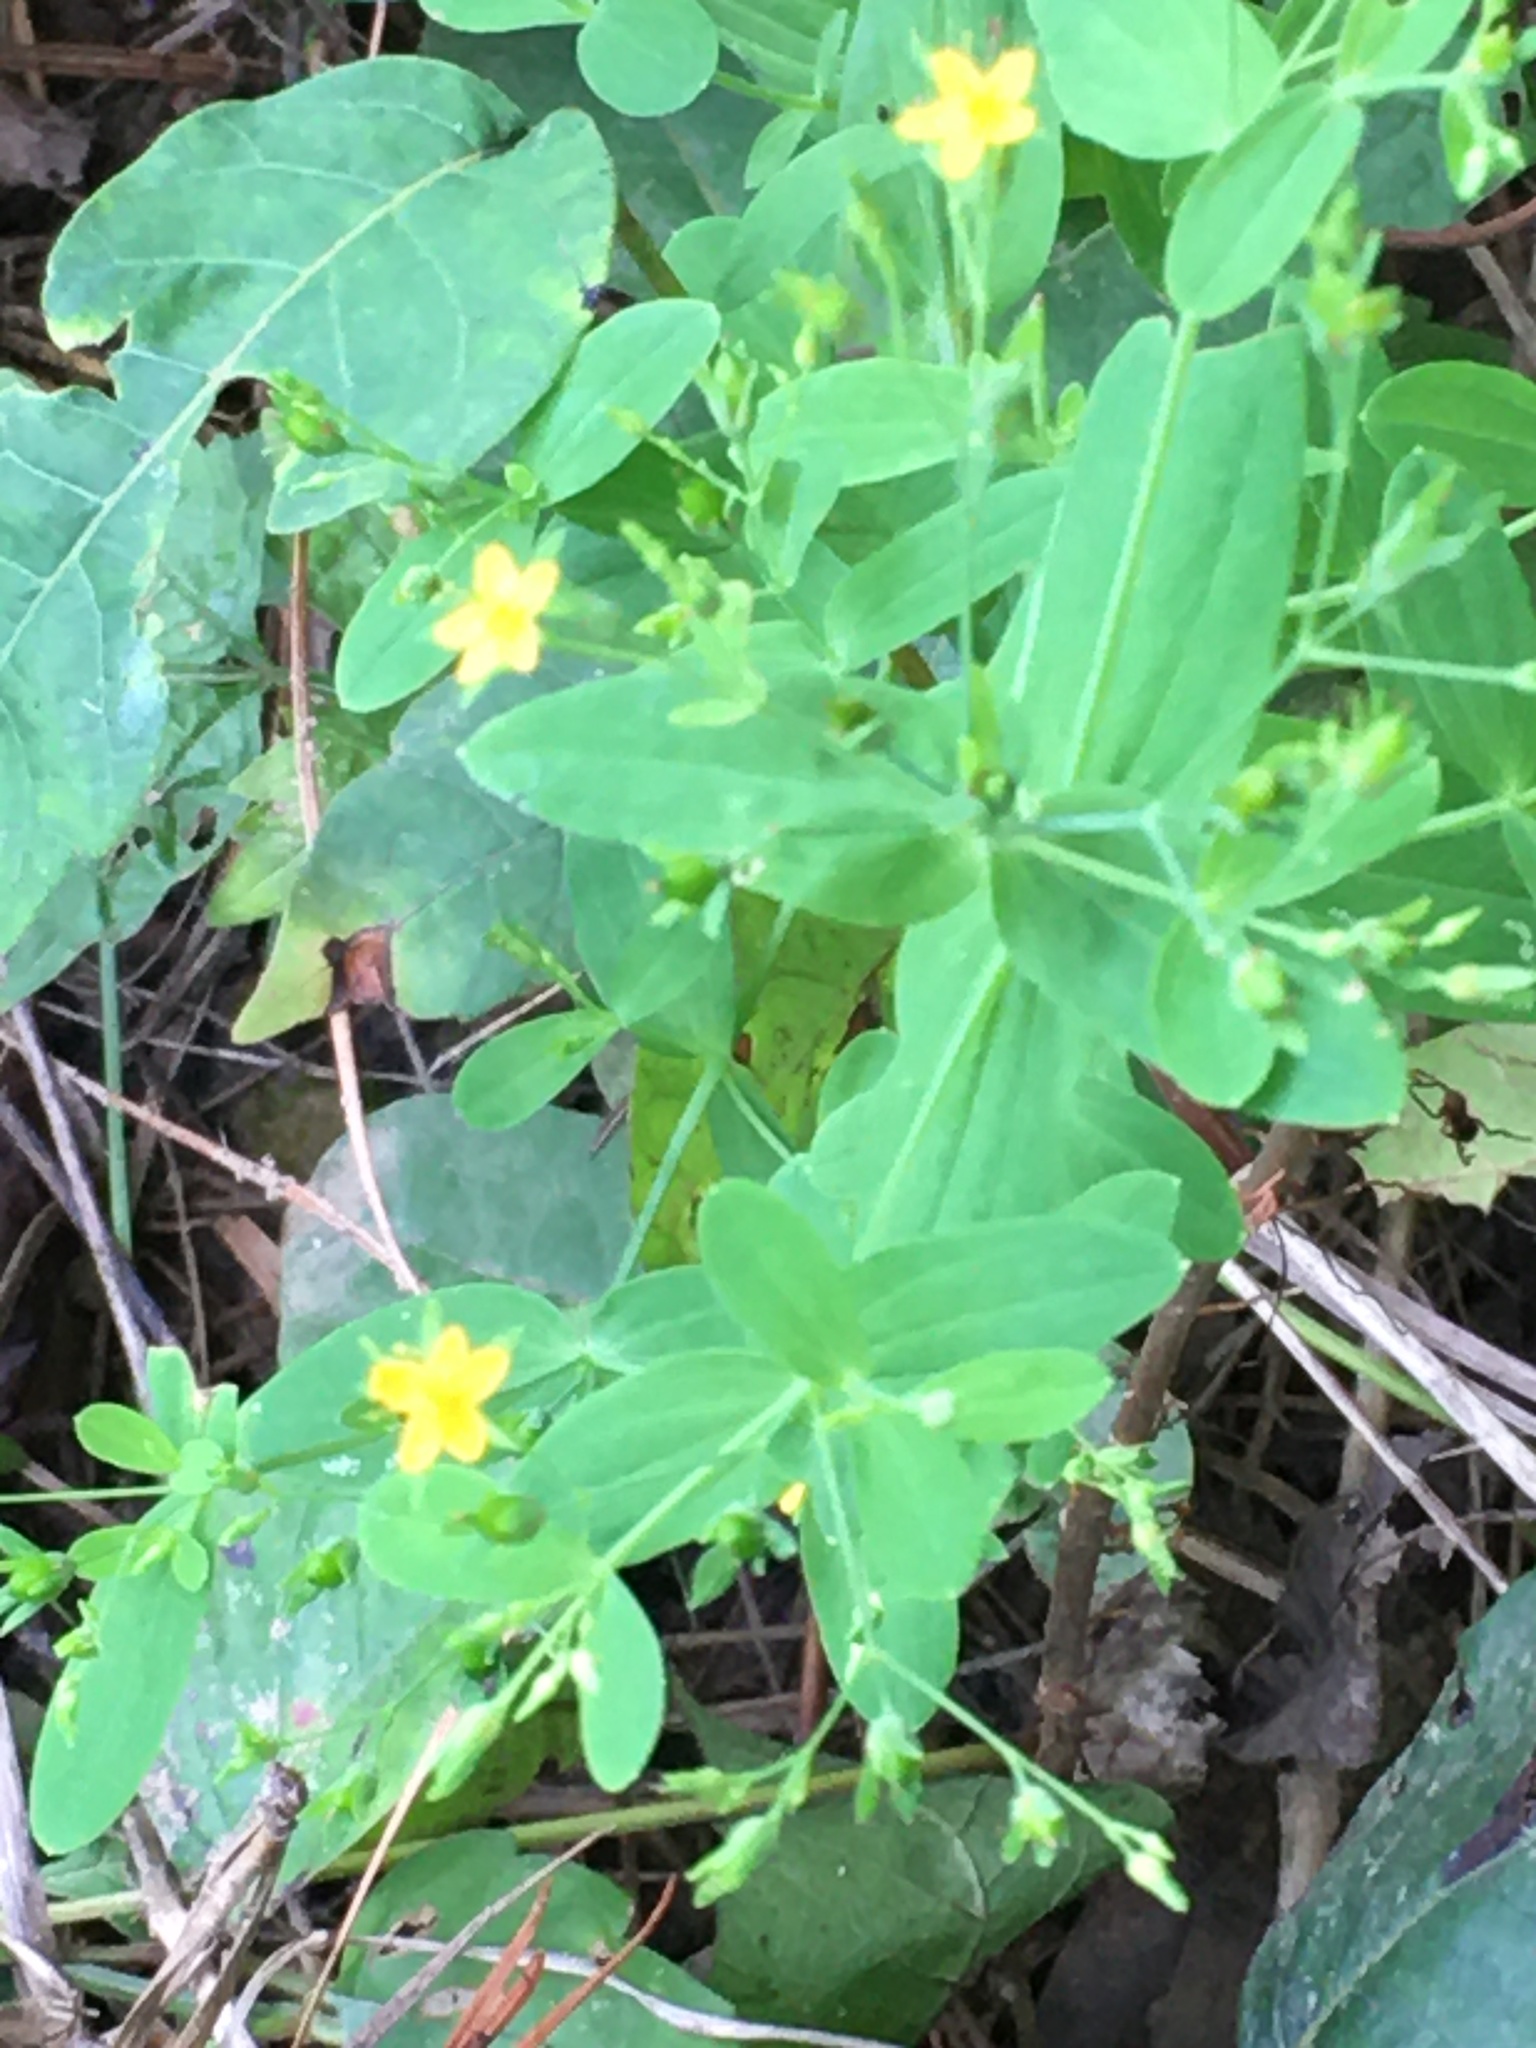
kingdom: Plantae
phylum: Tracheophyta
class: Magnoliopsida
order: Malpighiales
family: Hypericaceae
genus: Hypericum
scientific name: Hypericum mutilum
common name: Dwarf st. john's-wort
